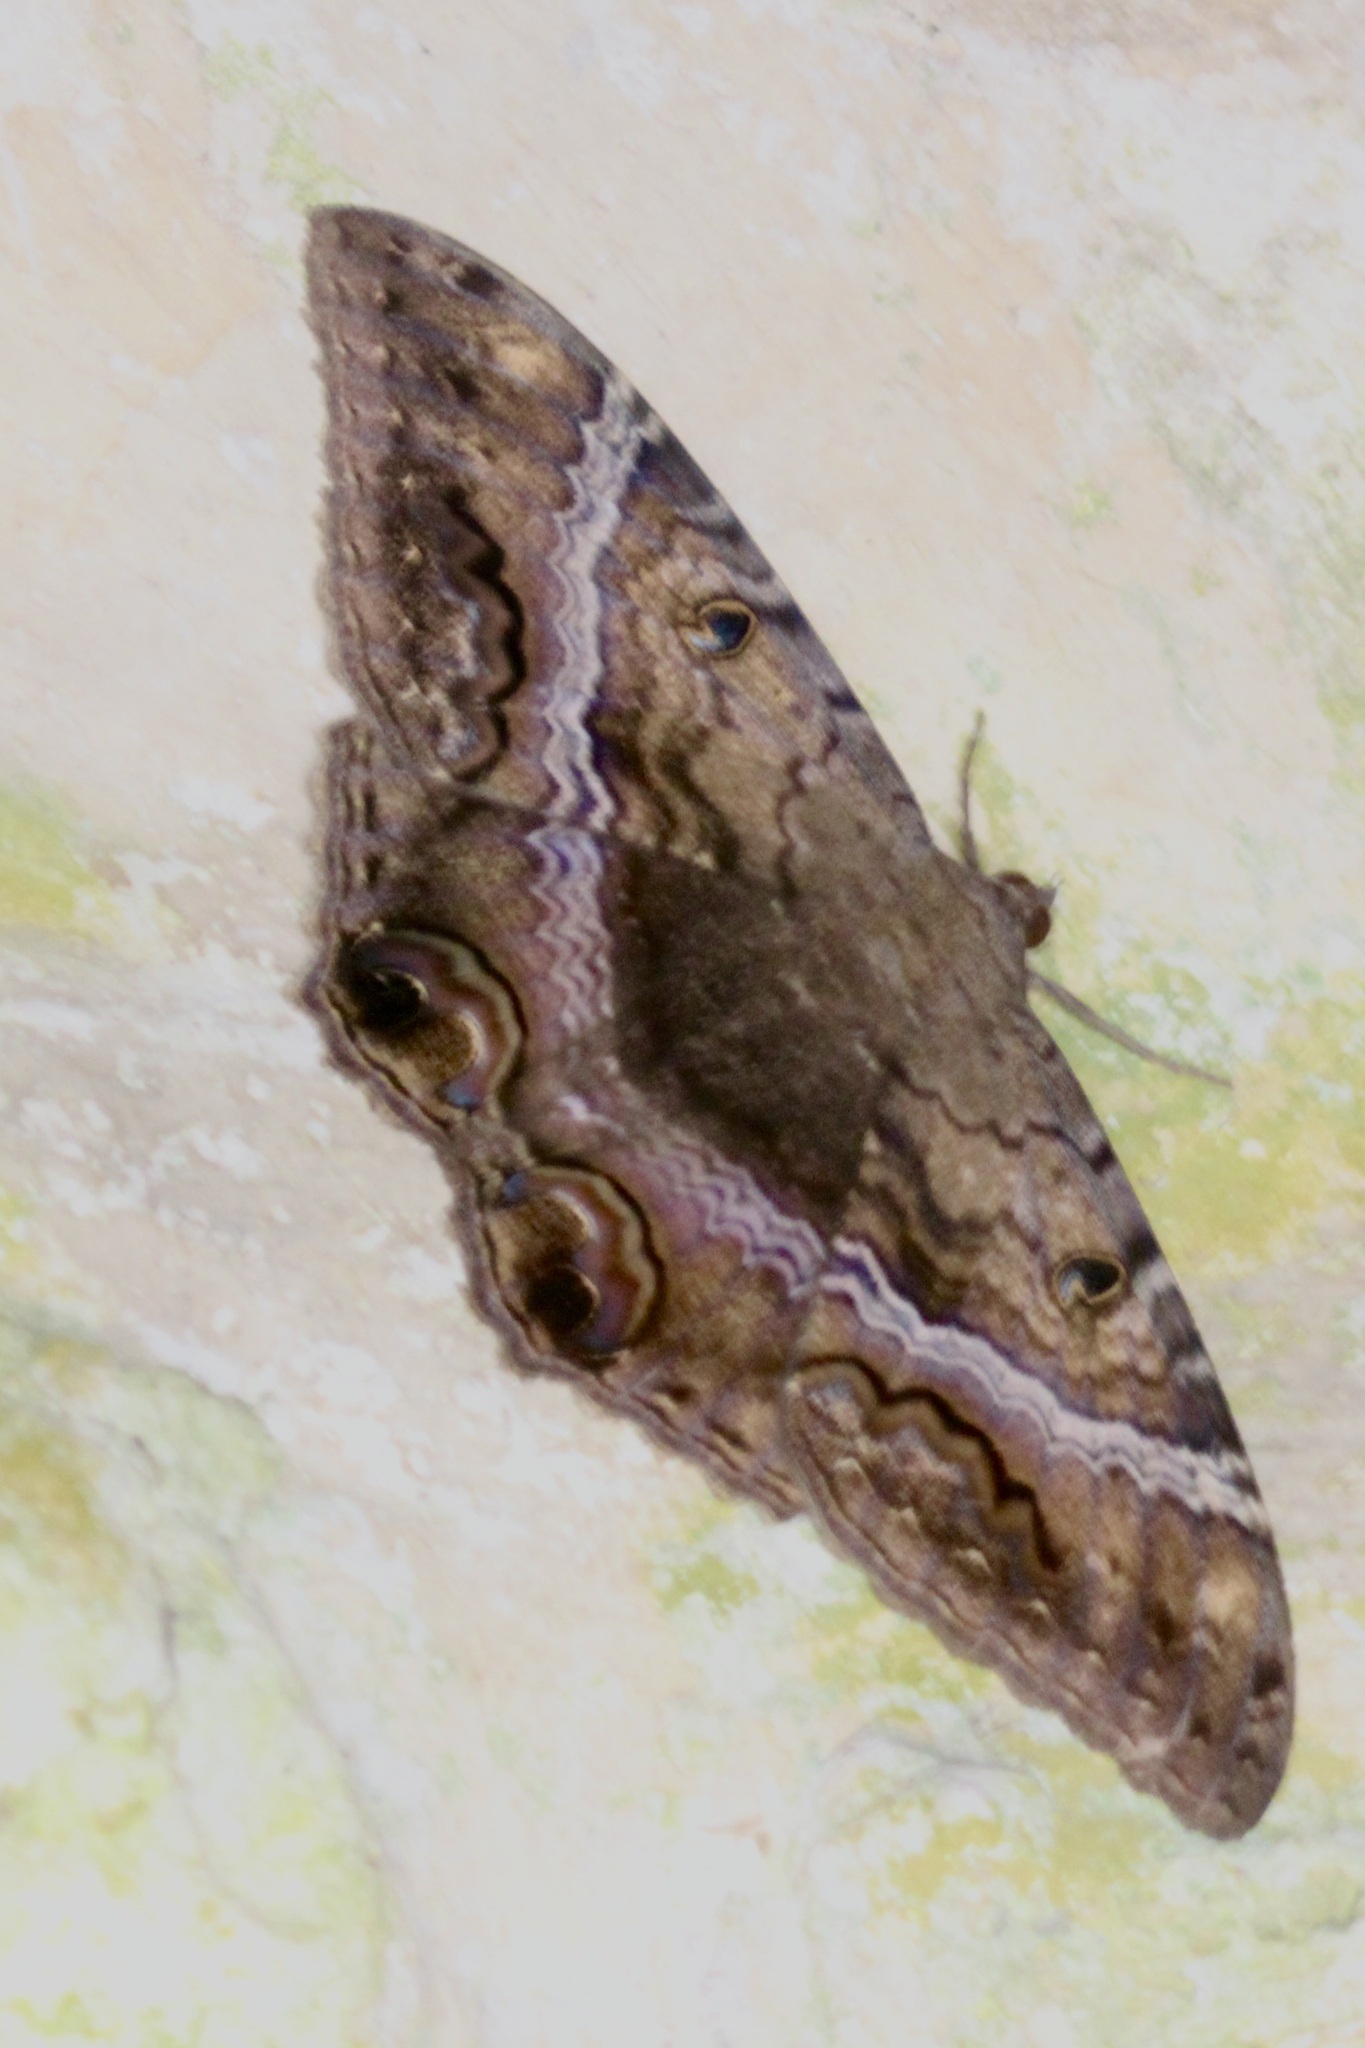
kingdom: Animalia
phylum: Arthropoda
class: Insecta
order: Lepidoptera
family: Erebidae
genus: Ascalapha
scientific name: Ascalapha odorata
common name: Black witch
